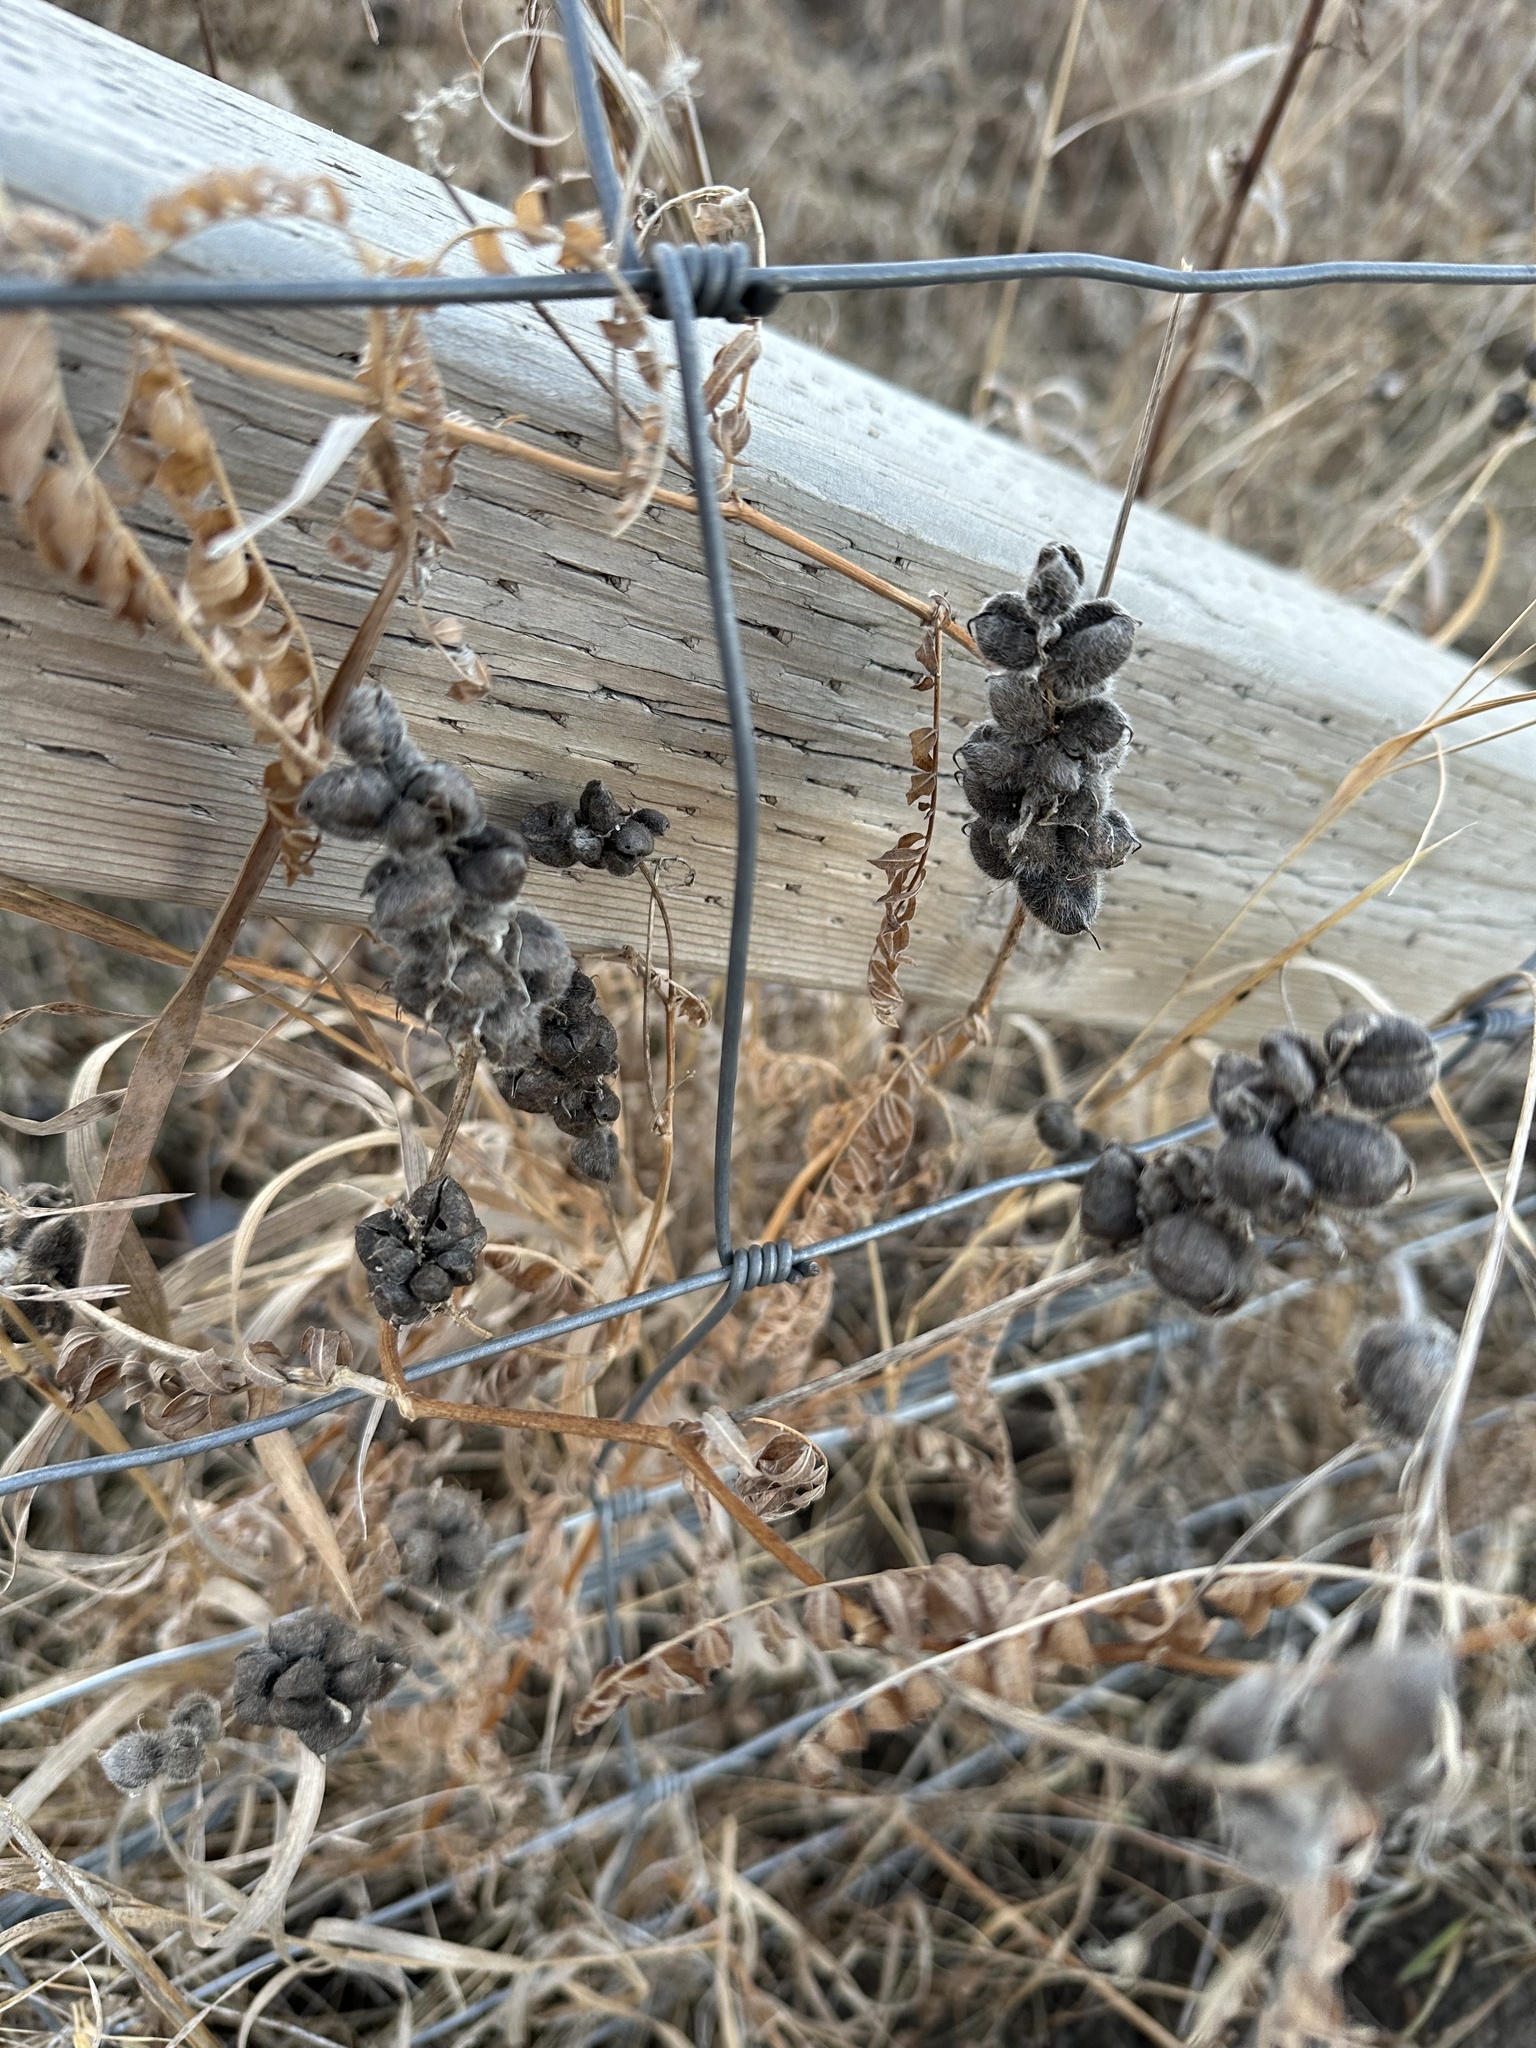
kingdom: Plantae
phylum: Tracheophyta
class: Magnoliopsida
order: Fabales
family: Fabaceae
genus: Astragalus
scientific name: Astragalus cicer
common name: Chick-pea milk-vetch
